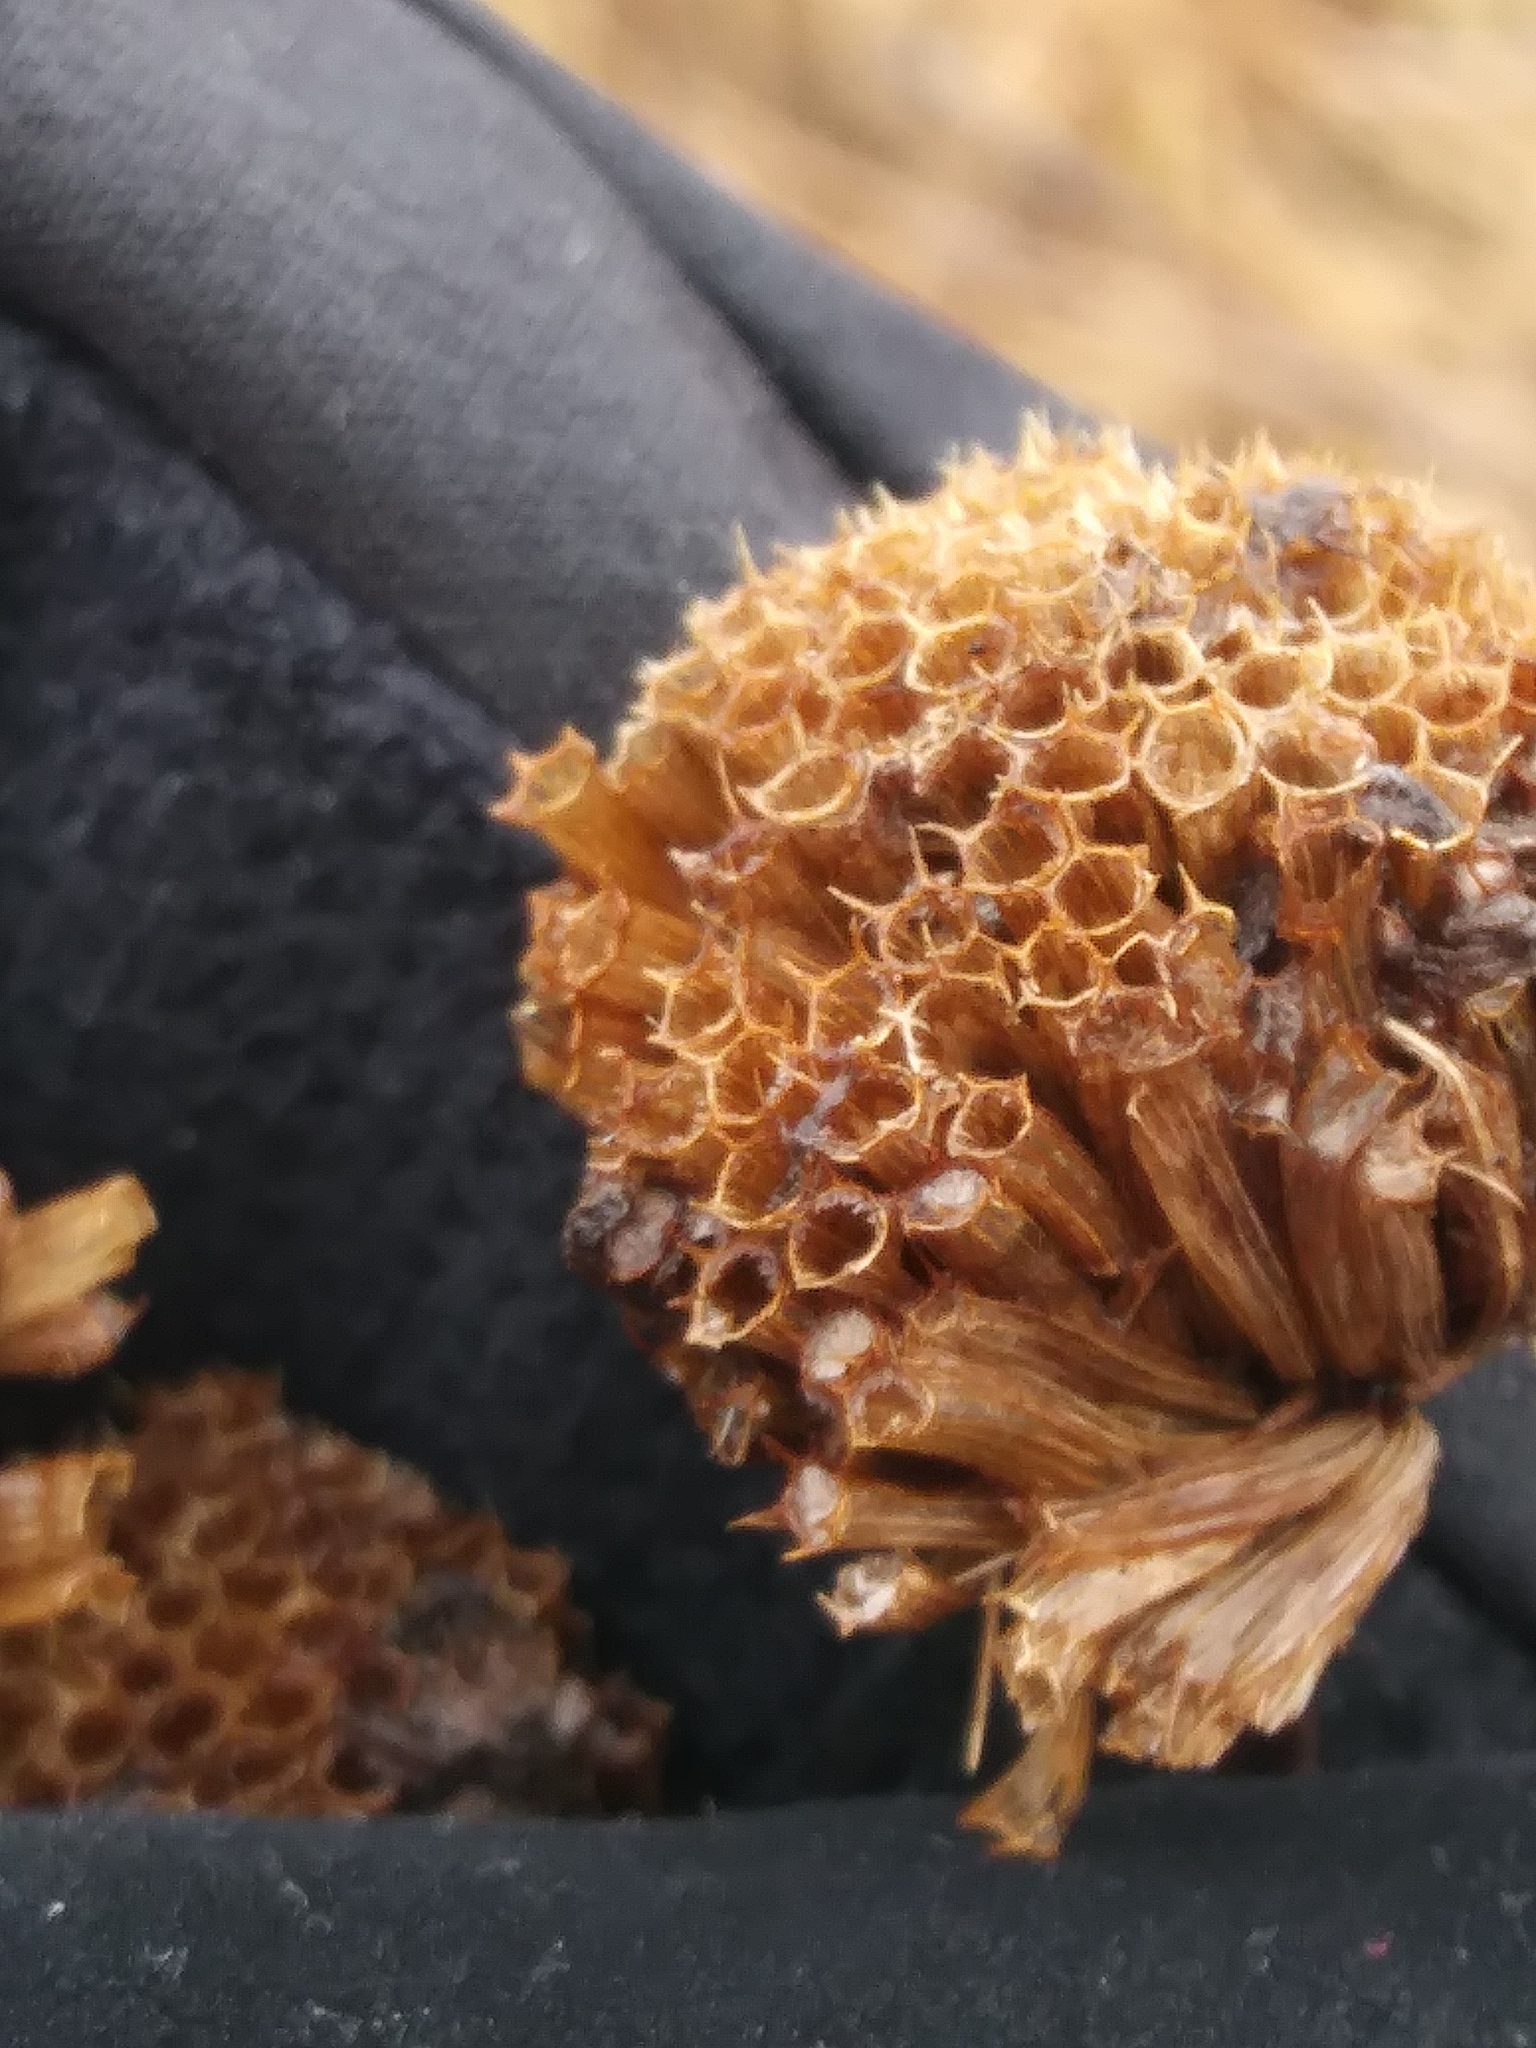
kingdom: Plantae
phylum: Tracheophyta
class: Magnoliopsida
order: Lamiales
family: Lamiaceae
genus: Monarda
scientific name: Monarda fistulosa
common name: Purple beebalm
